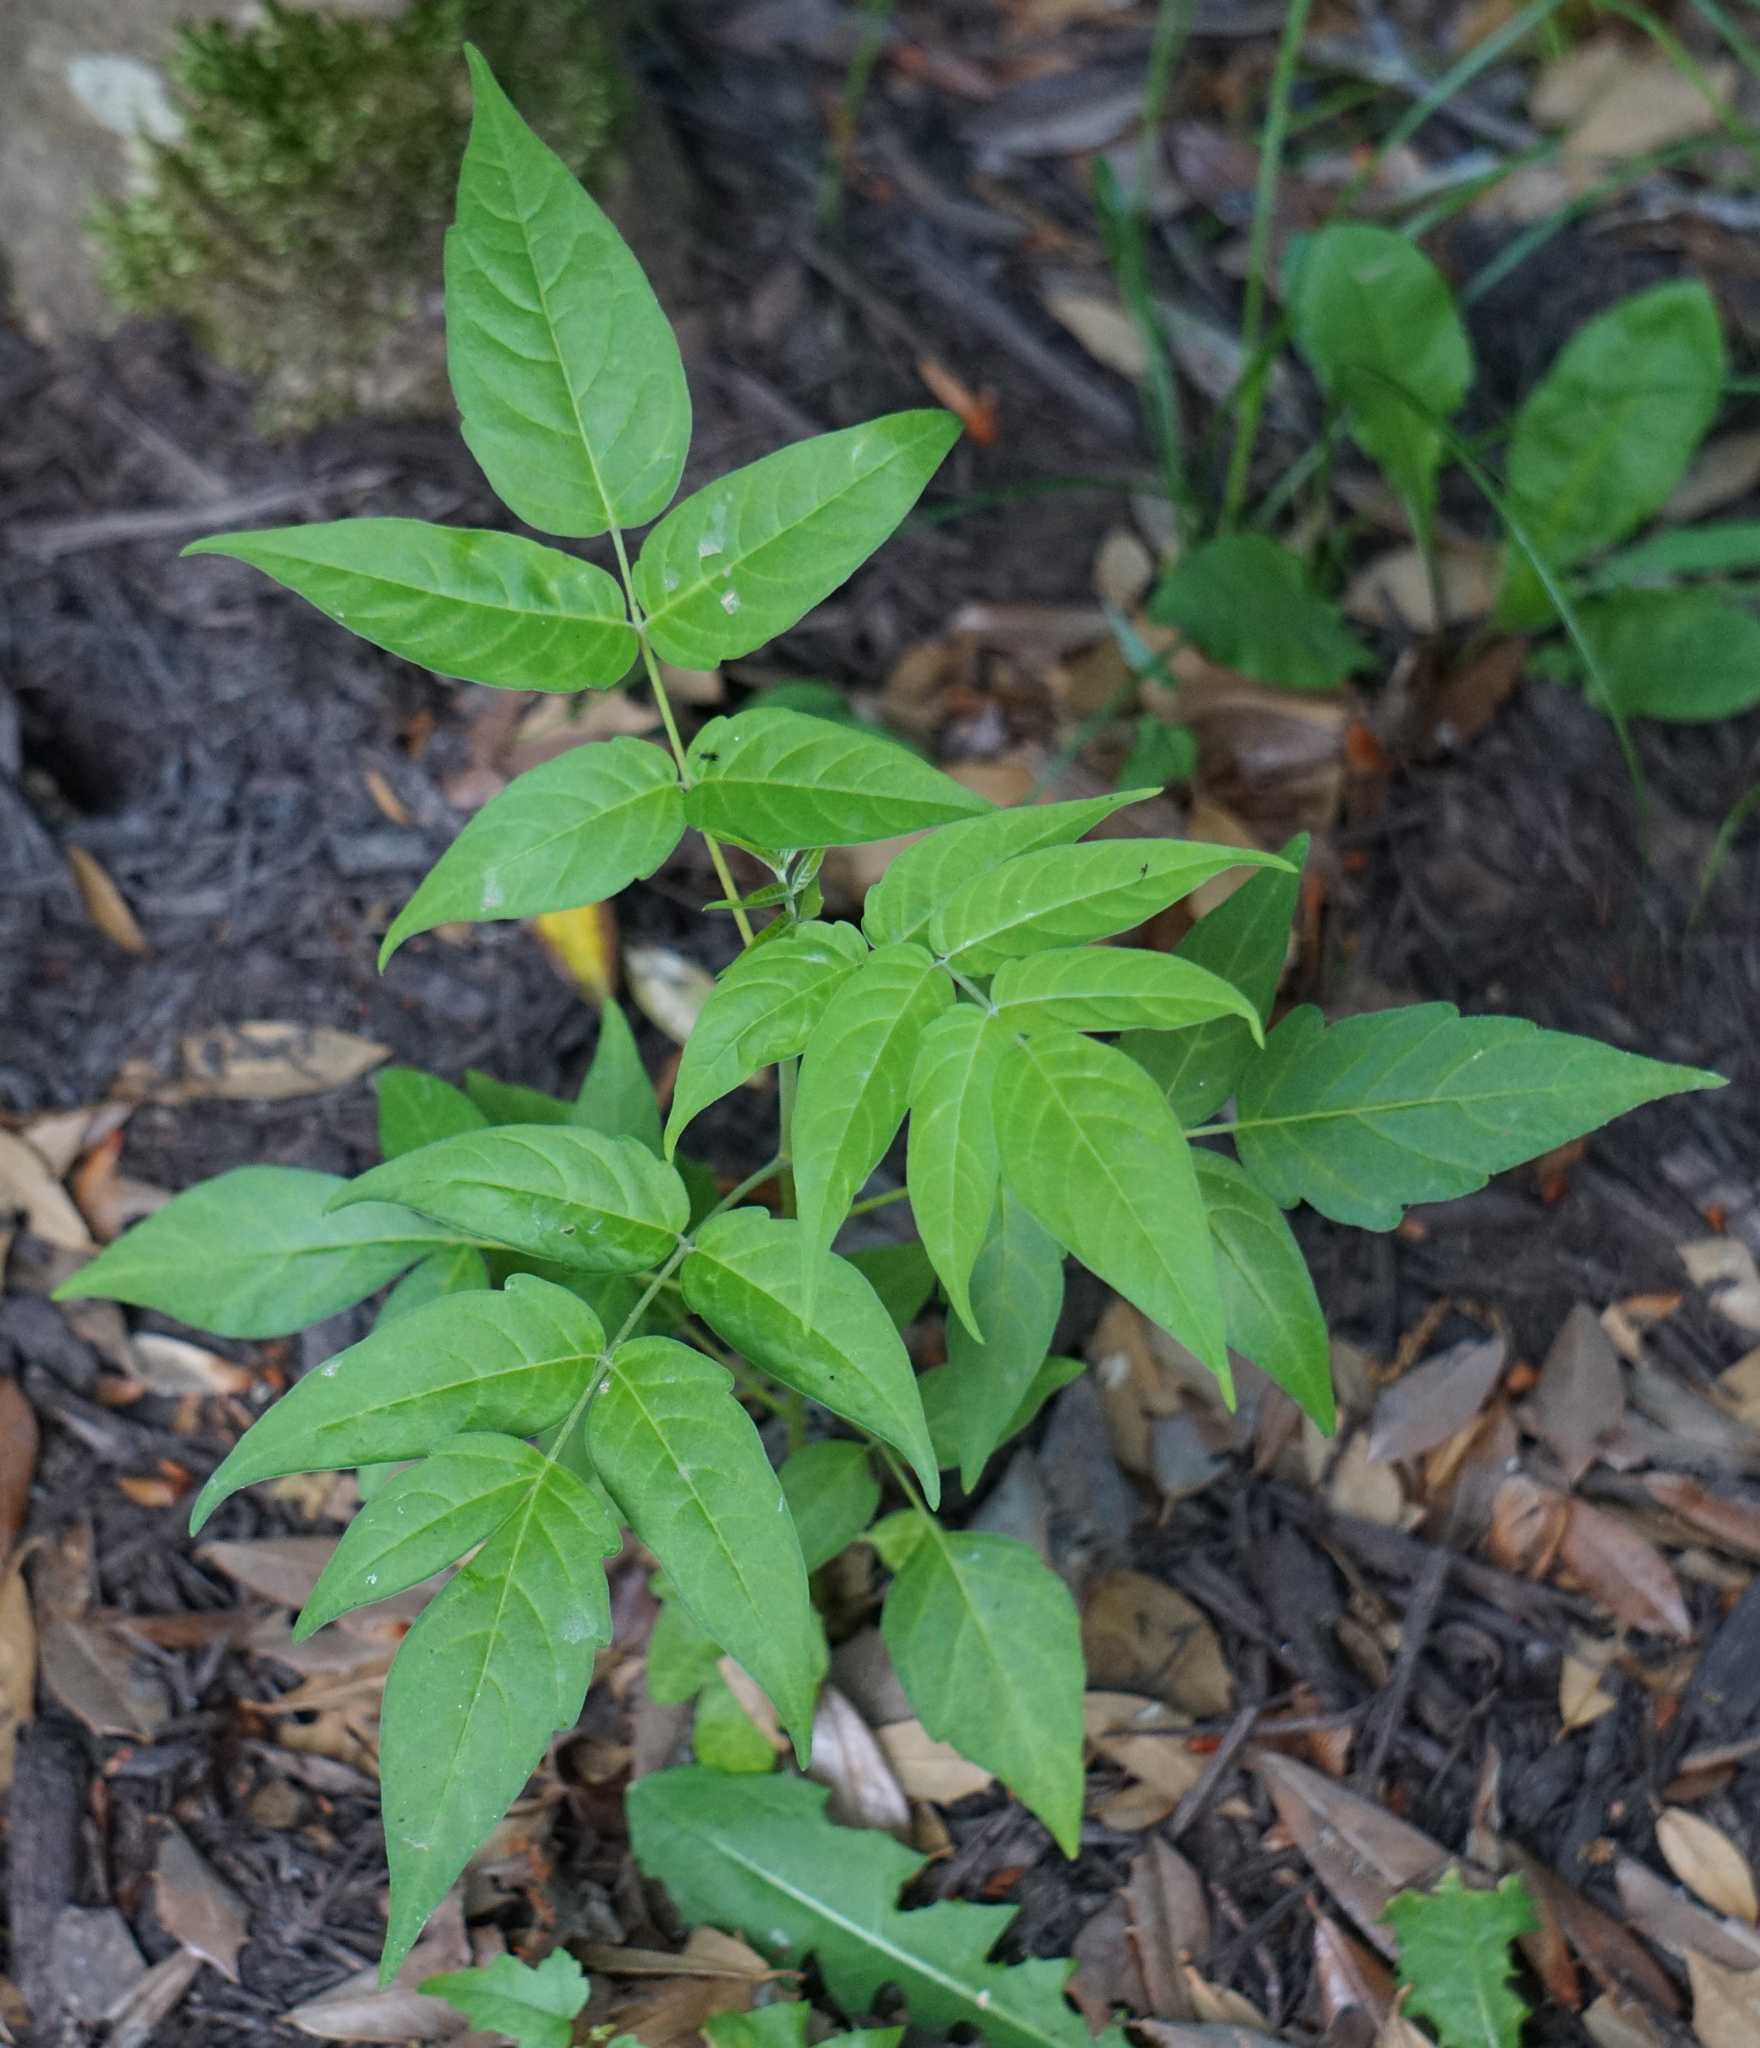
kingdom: Plantae
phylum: Tracheophyta
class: Magnoliopsida
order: Sapindales
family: Simaroubaceae
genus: Ailanthus
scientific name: Ailanthus altissima
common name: Tree-of-heaven
